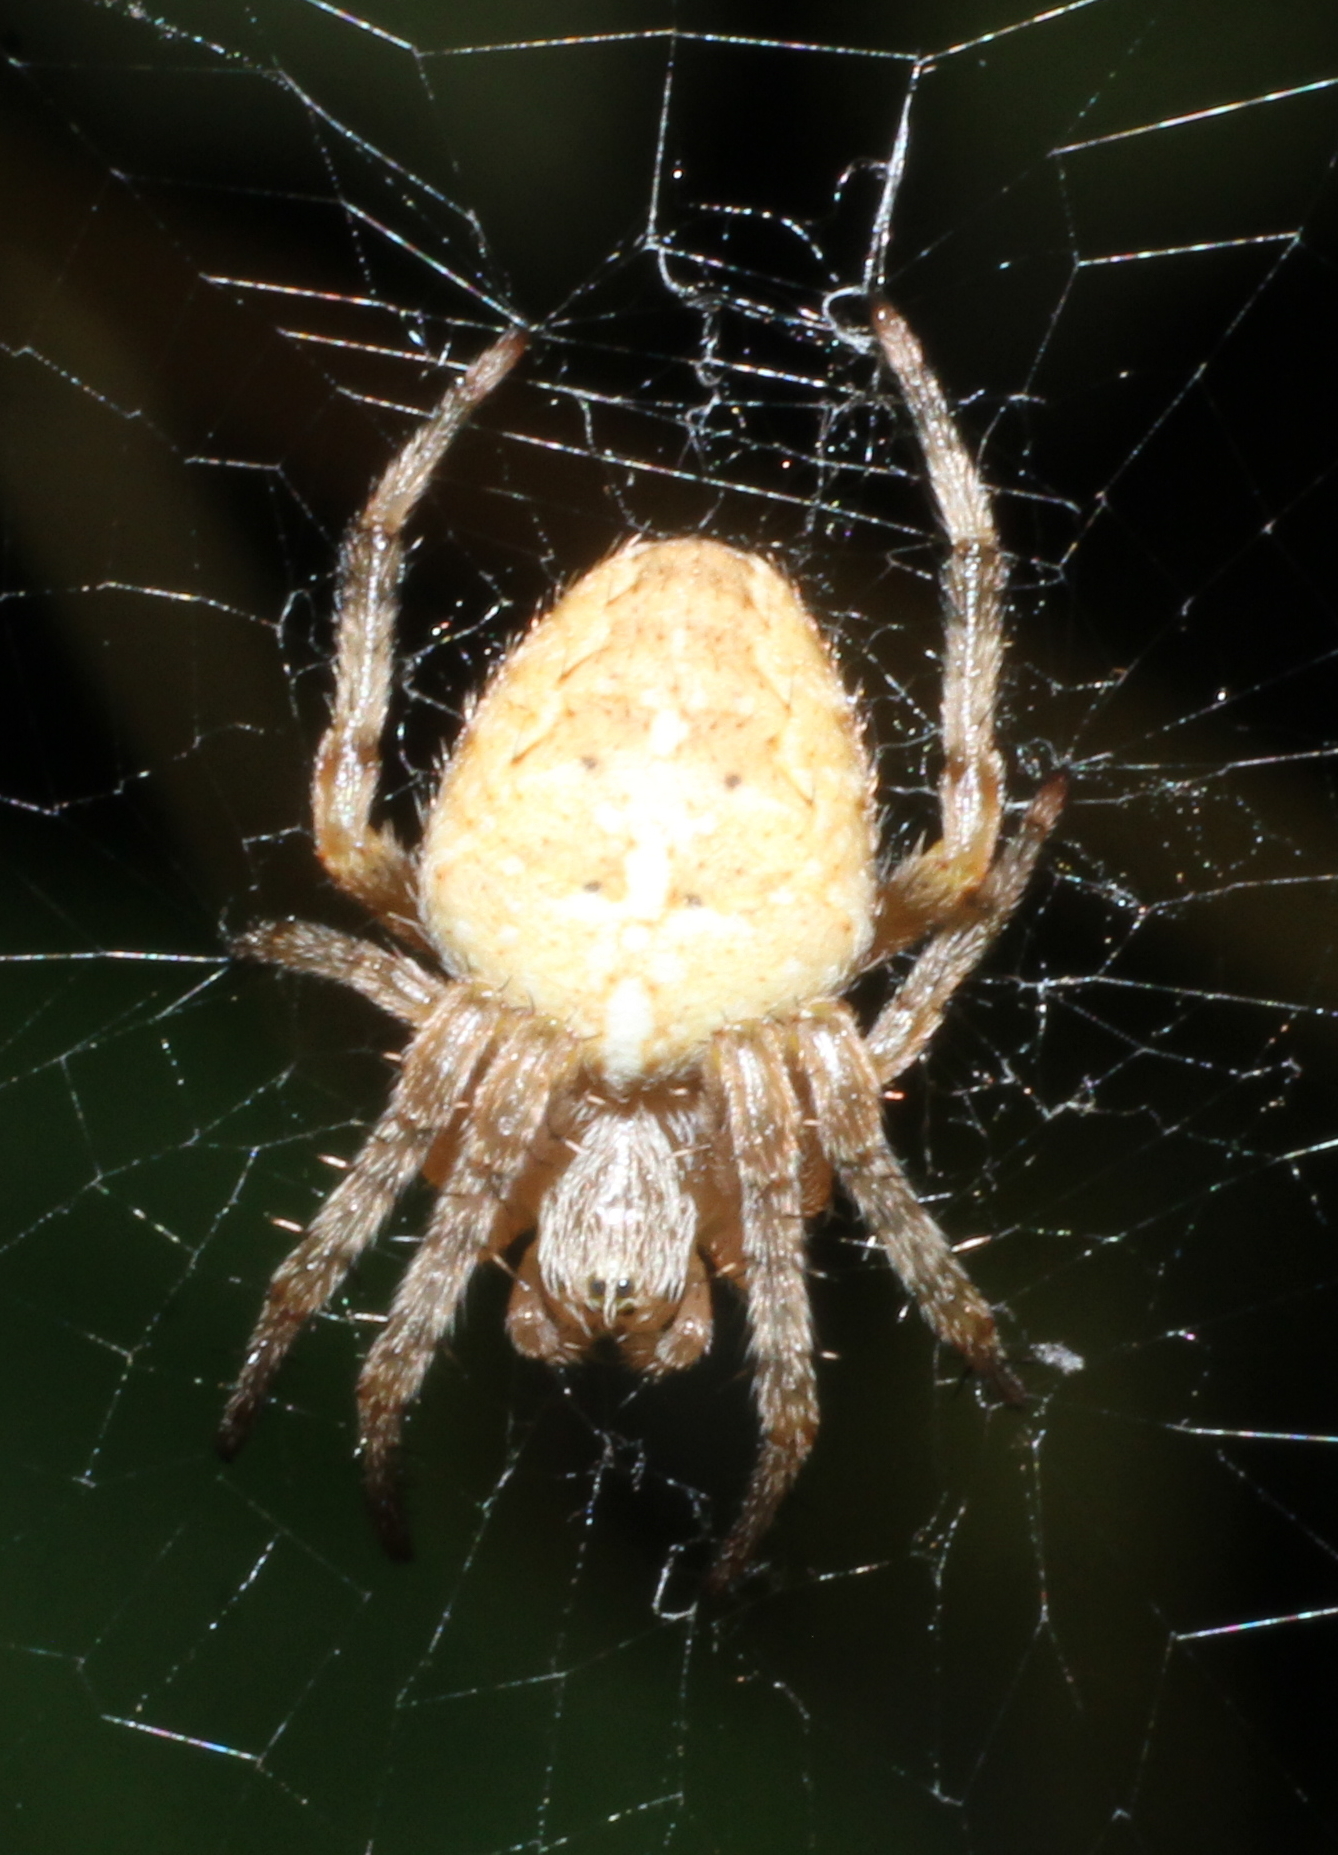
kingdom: Animalia
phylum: Arthropoda
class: Arachnida
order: Araneae
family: Araneidae
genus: Araneus
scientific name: Araneus diadematus
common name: Cross orbweaver
